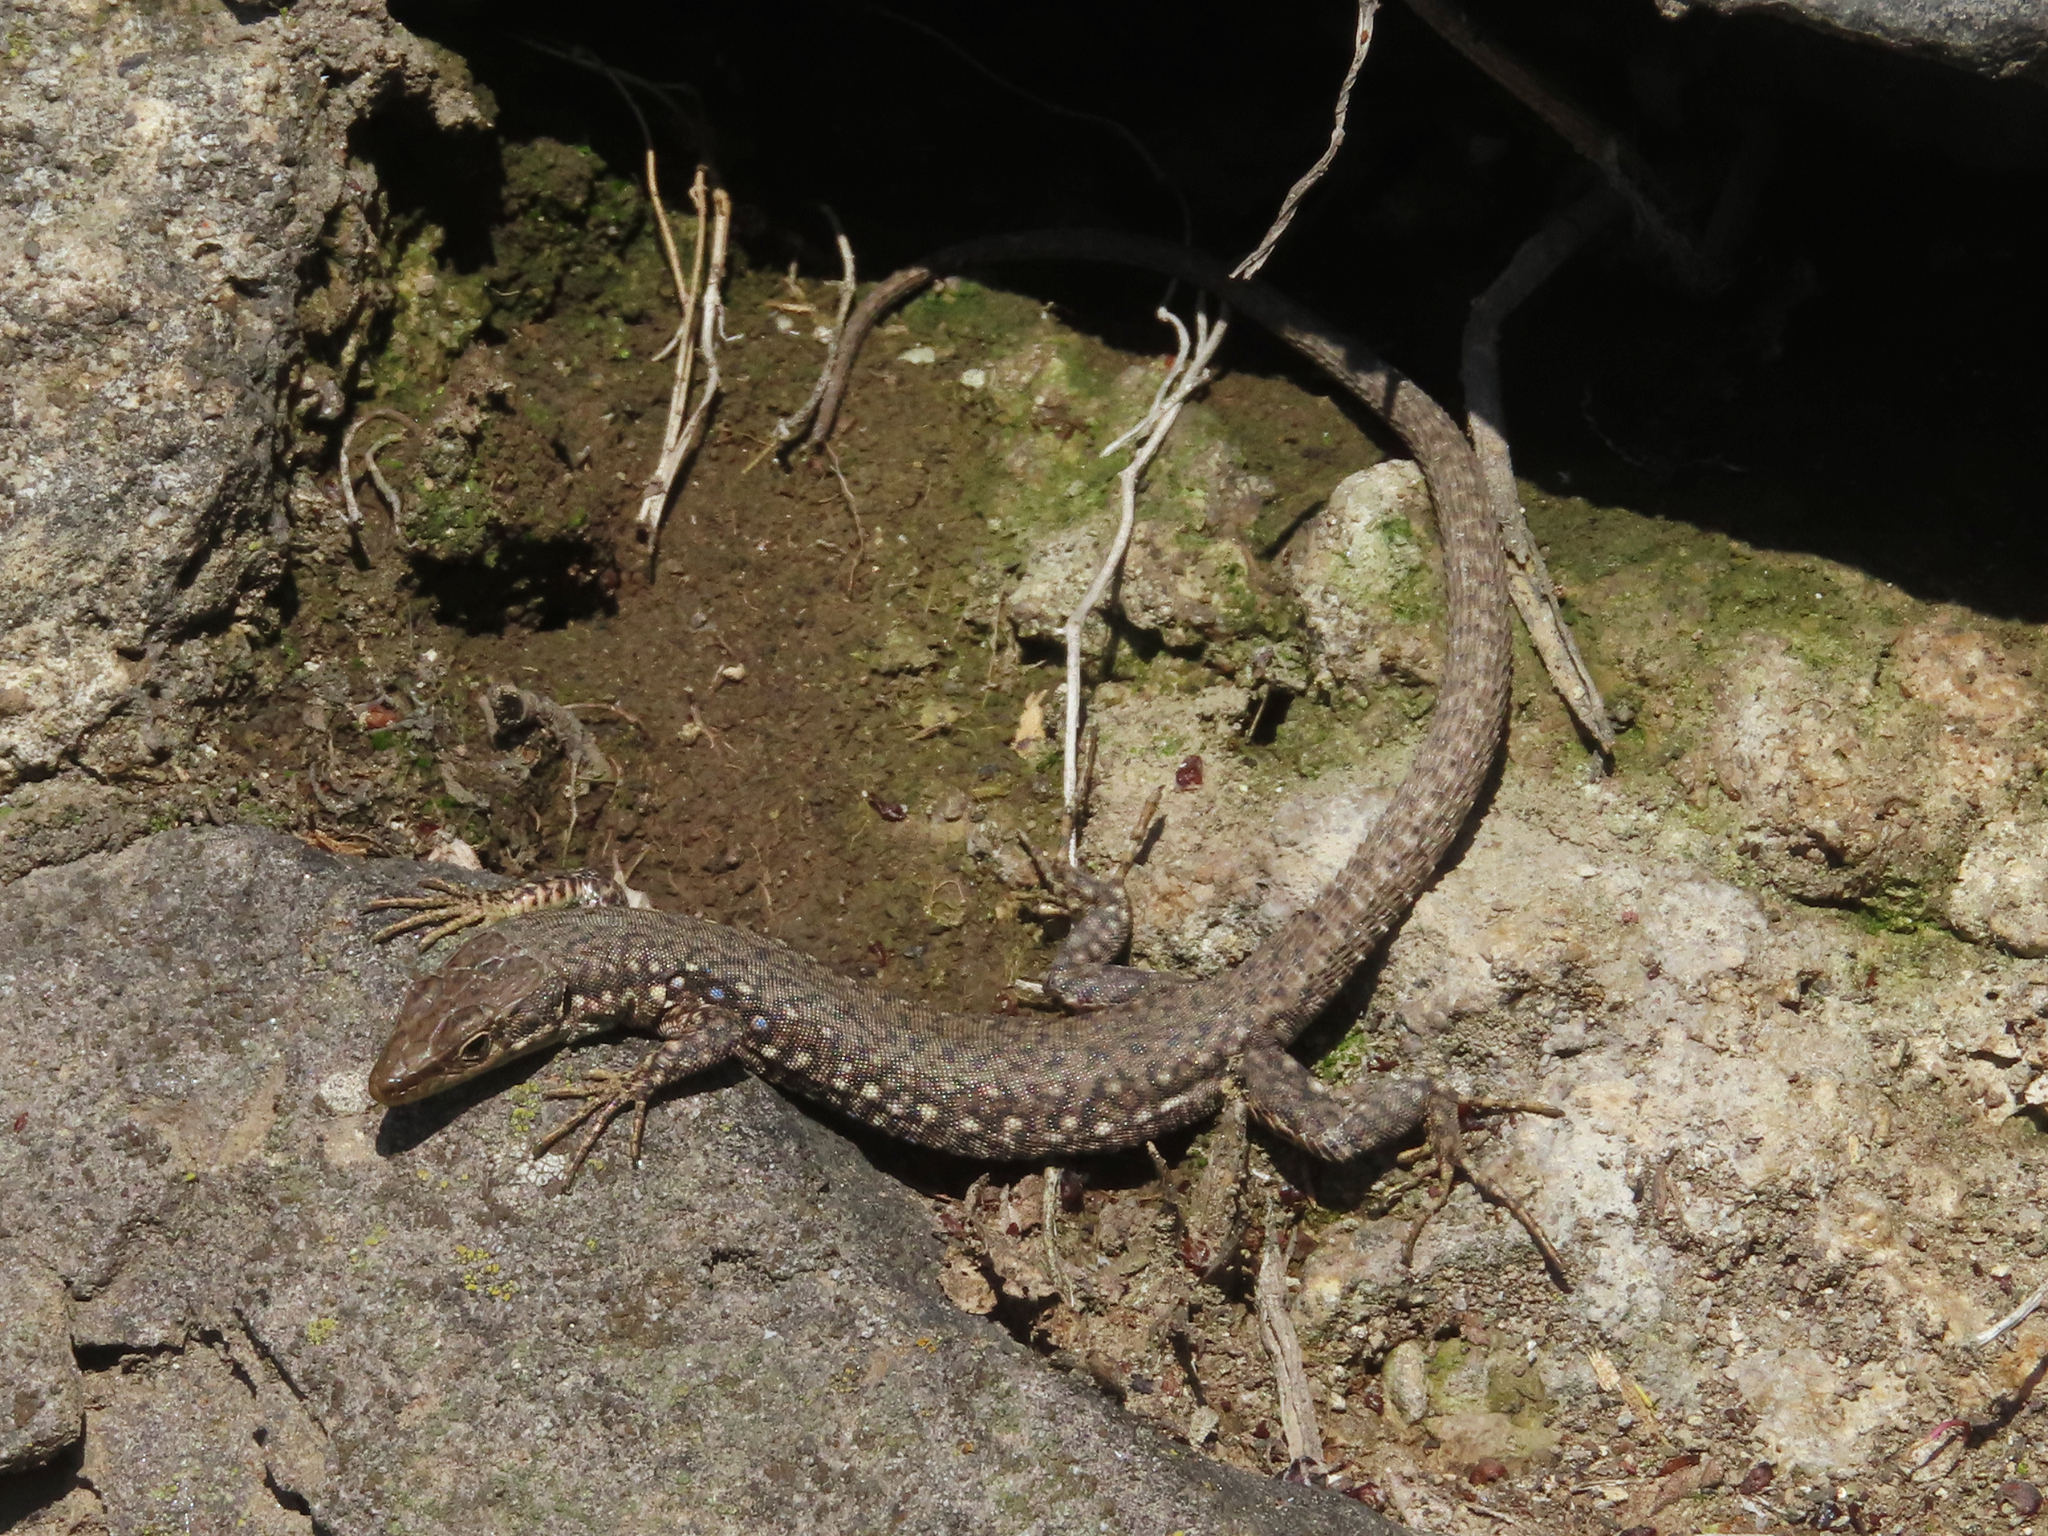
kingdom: Animalia
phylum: Chordata
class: Squamata
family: Lacertidae
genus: Darevskia
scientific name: Darevskia
